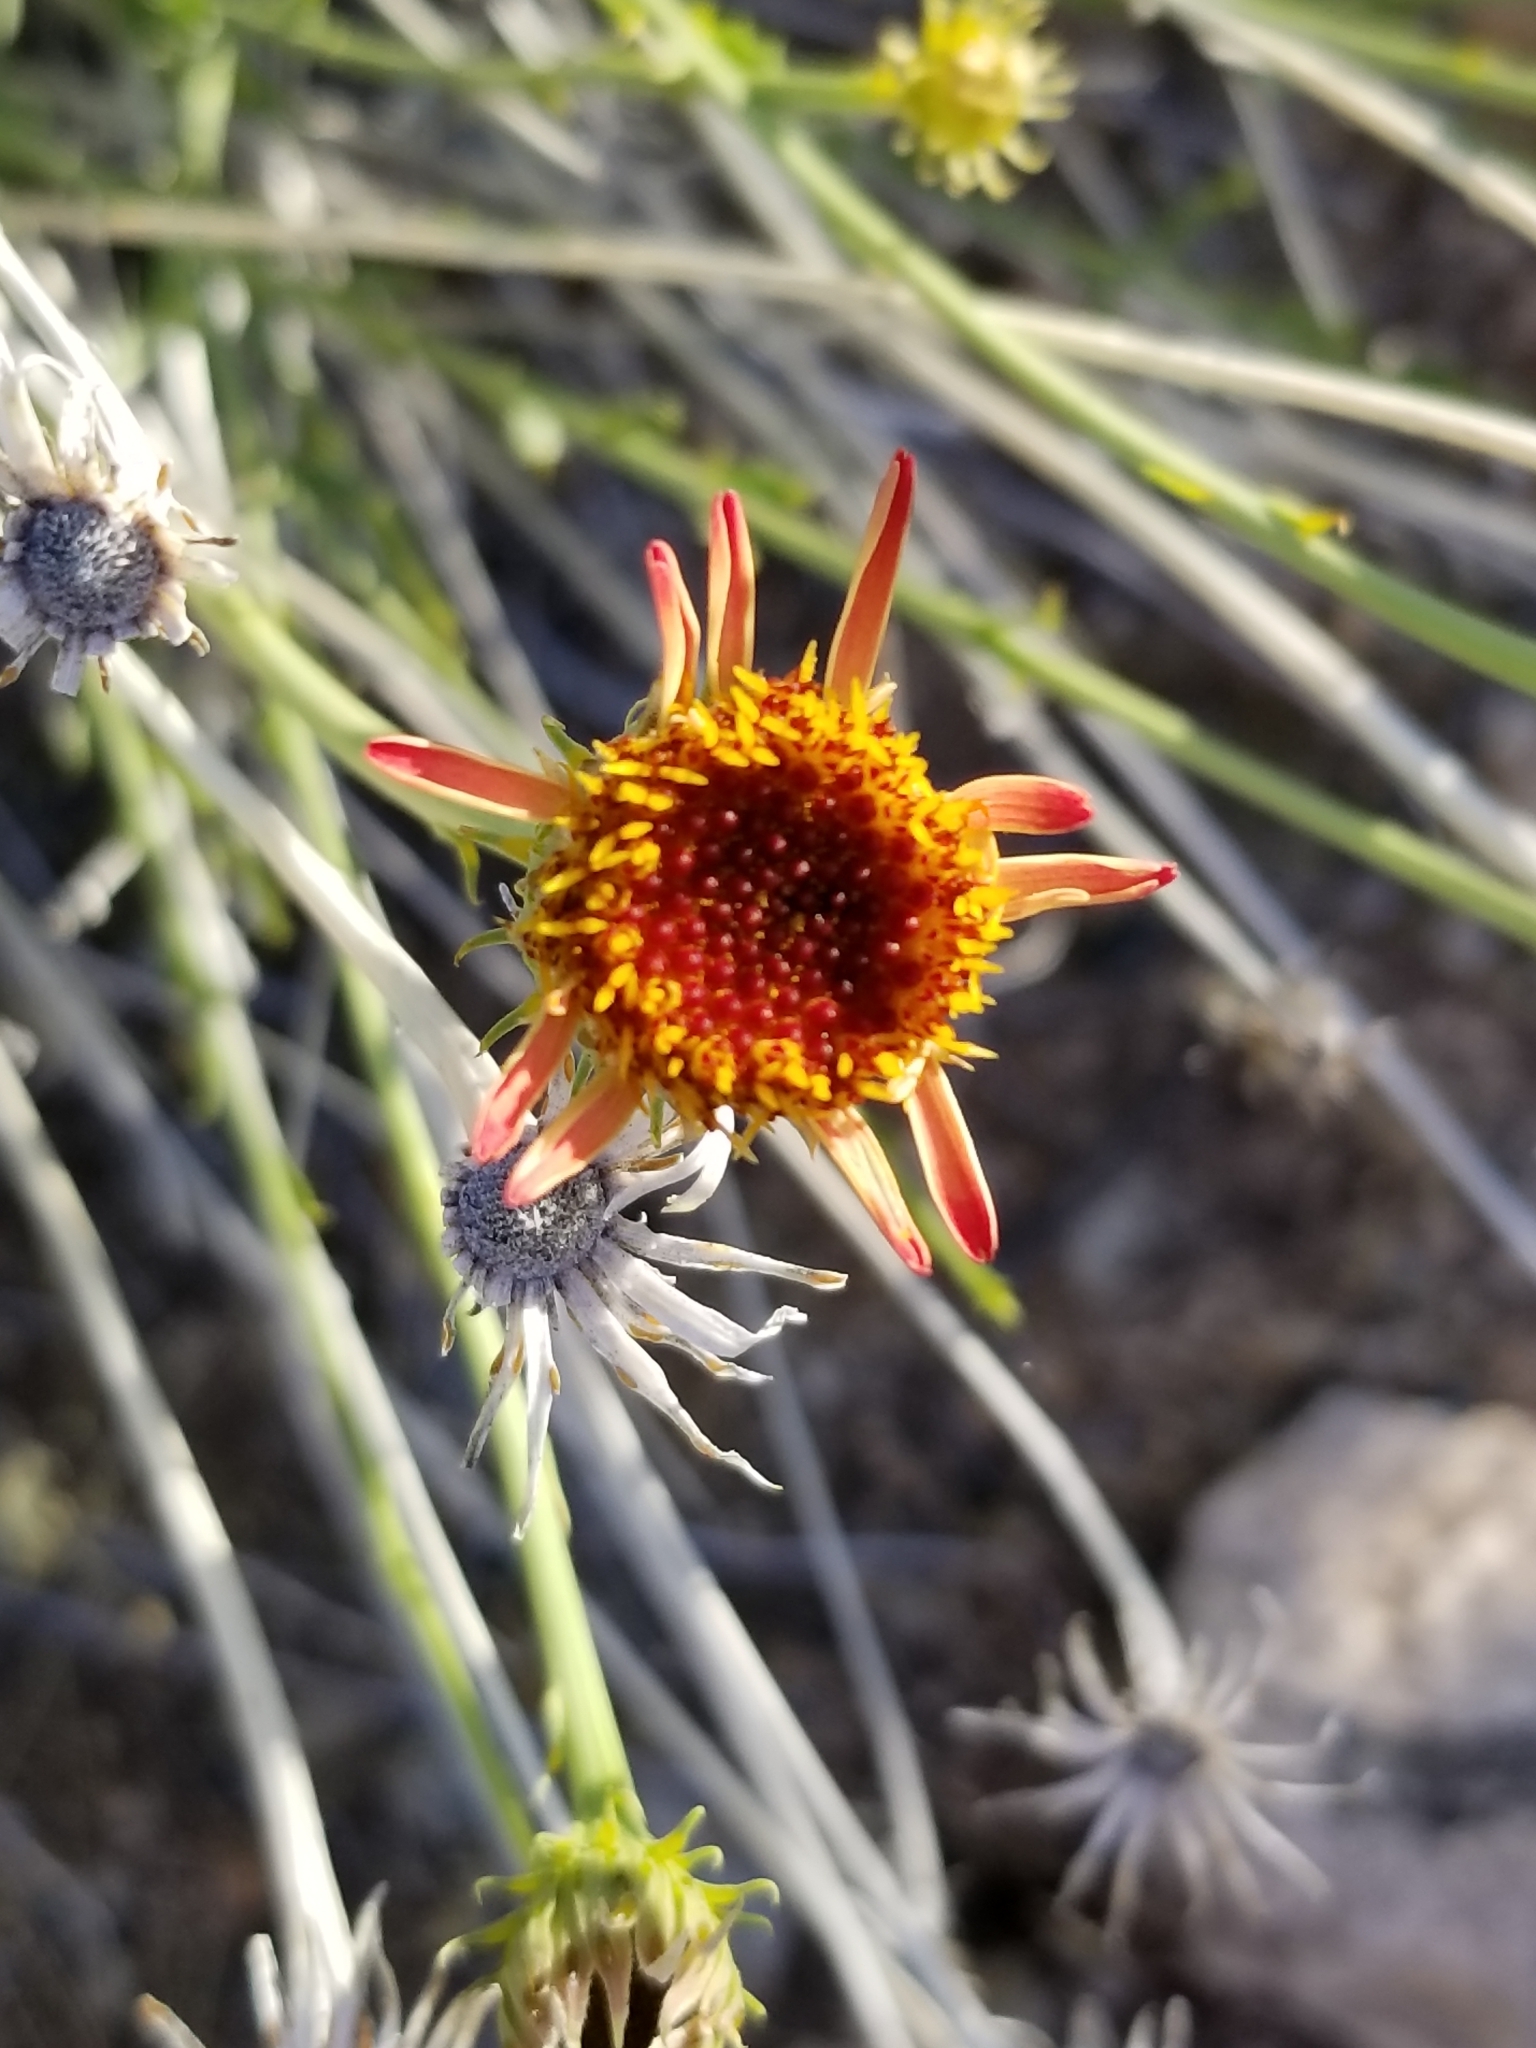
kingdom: Plantae
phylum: Tracheophyta
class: Magnoliopsida
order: Asterales
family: Asteraceae
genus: Adenophyllum
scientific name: Adenophyllum cooperi
